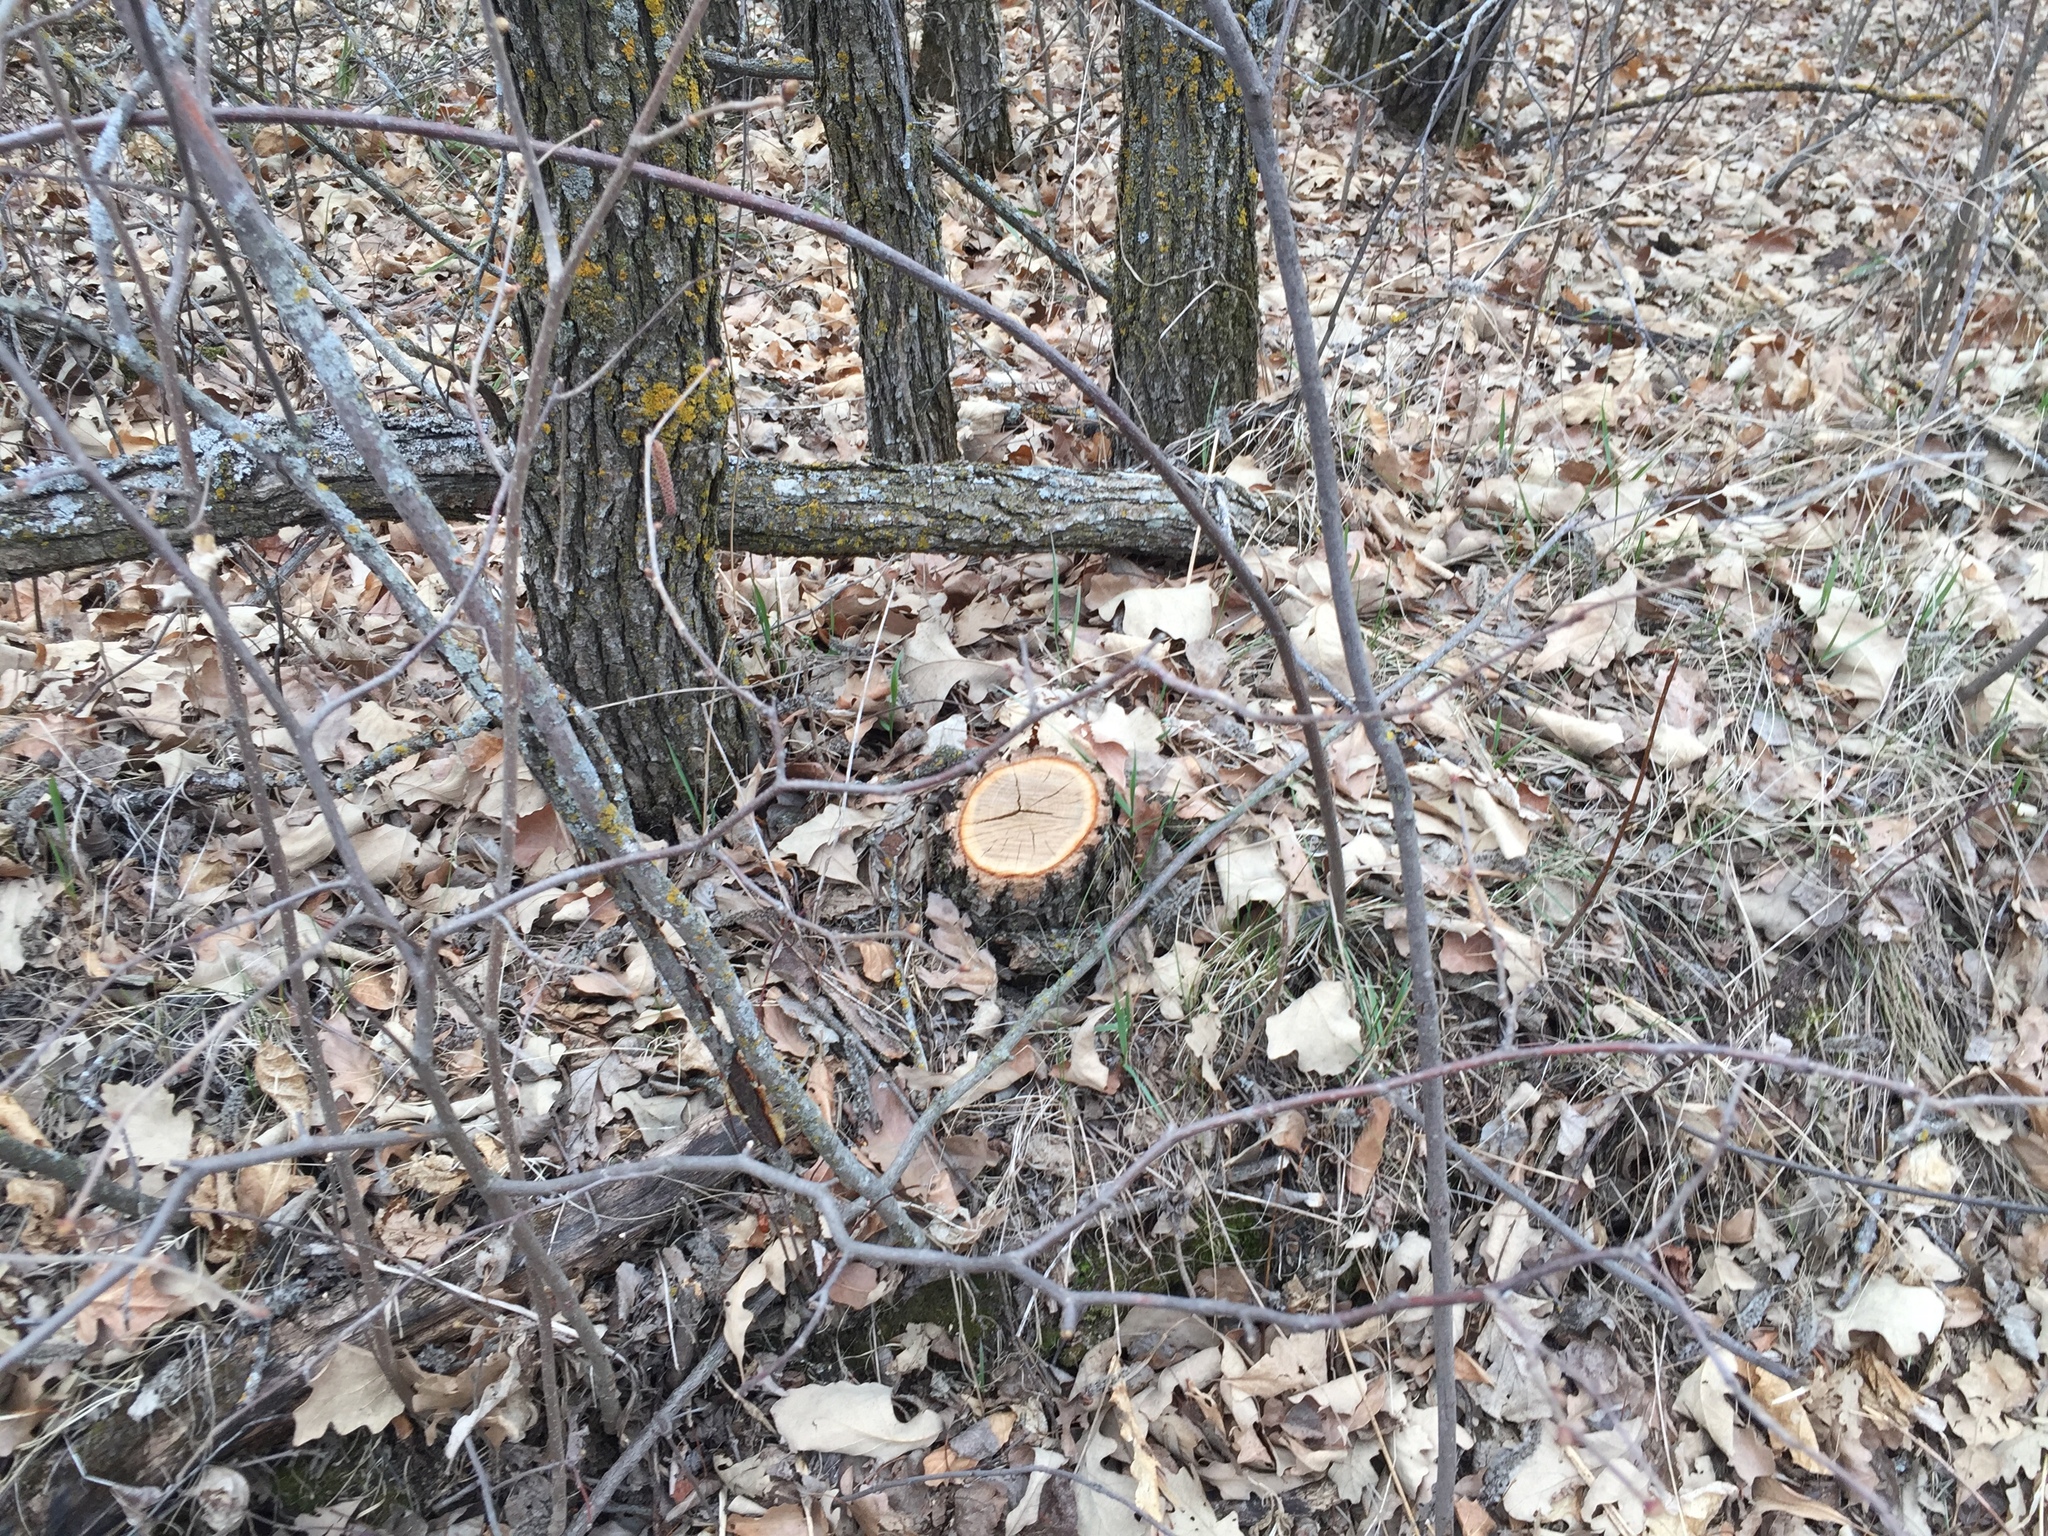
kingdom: Plantae
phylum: Tracheophyta
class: Magnoliopsida
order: Fagales
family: Fagaceae
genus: Quercus
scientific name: Quercus macrocarpa
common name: Bur oak
